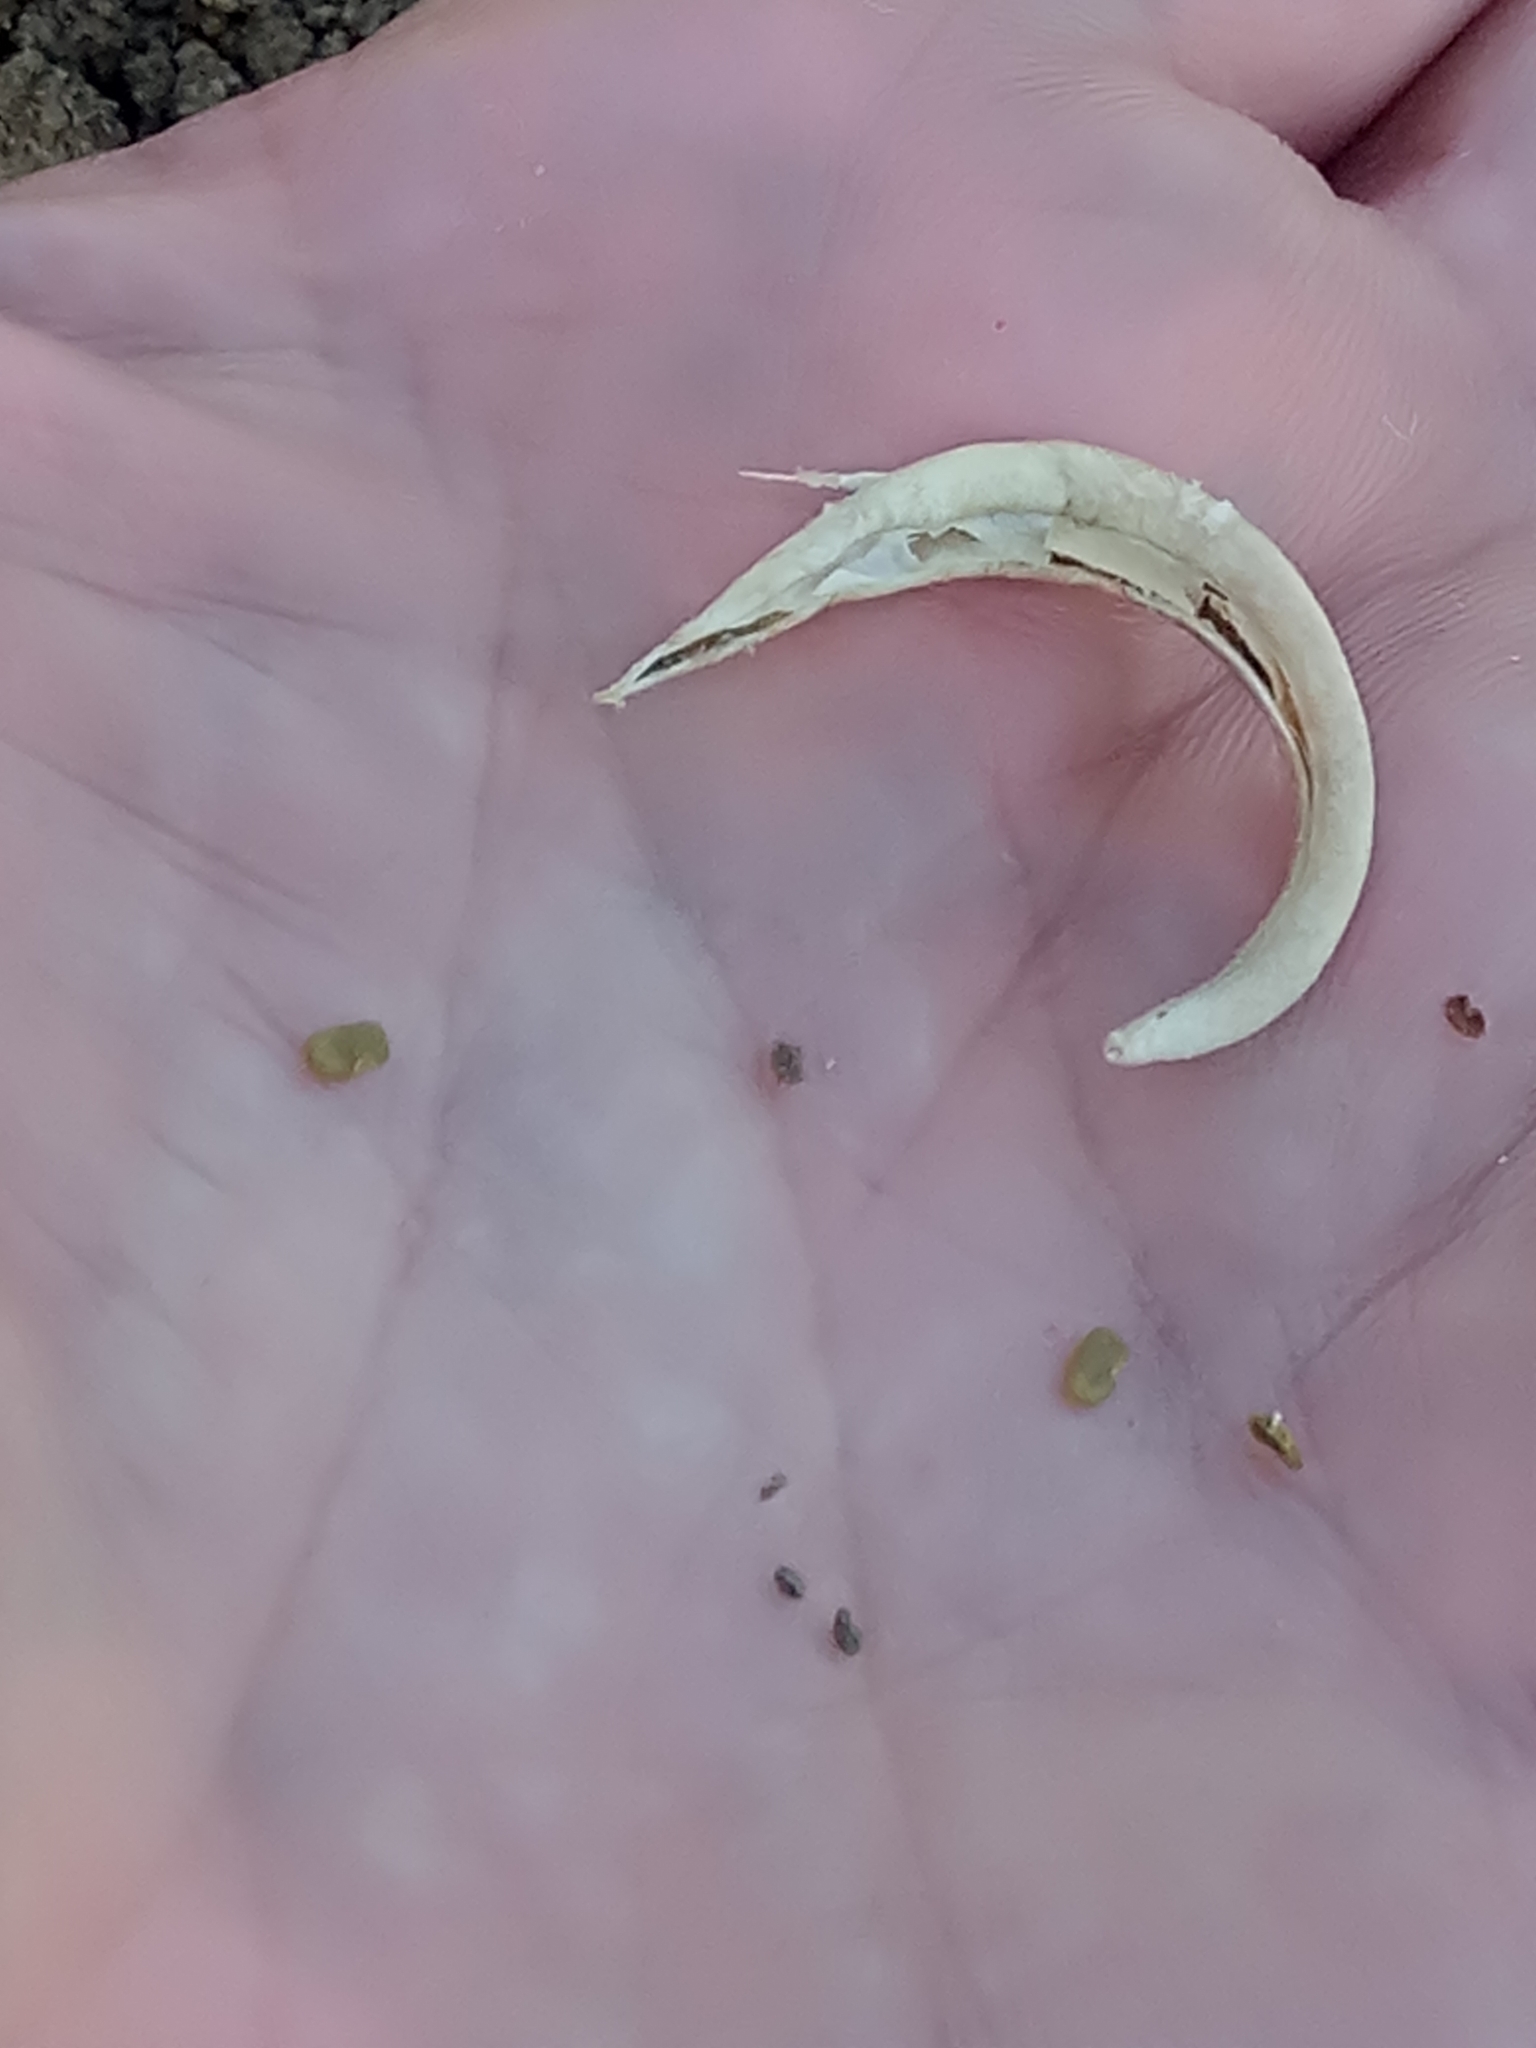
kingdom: Plantae
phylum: Tracheophyta
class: Magnoliopsida
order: Brassicales
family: Brassicaceae
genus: Matthiola
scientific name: Matthiola incana
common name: Hoary stock
